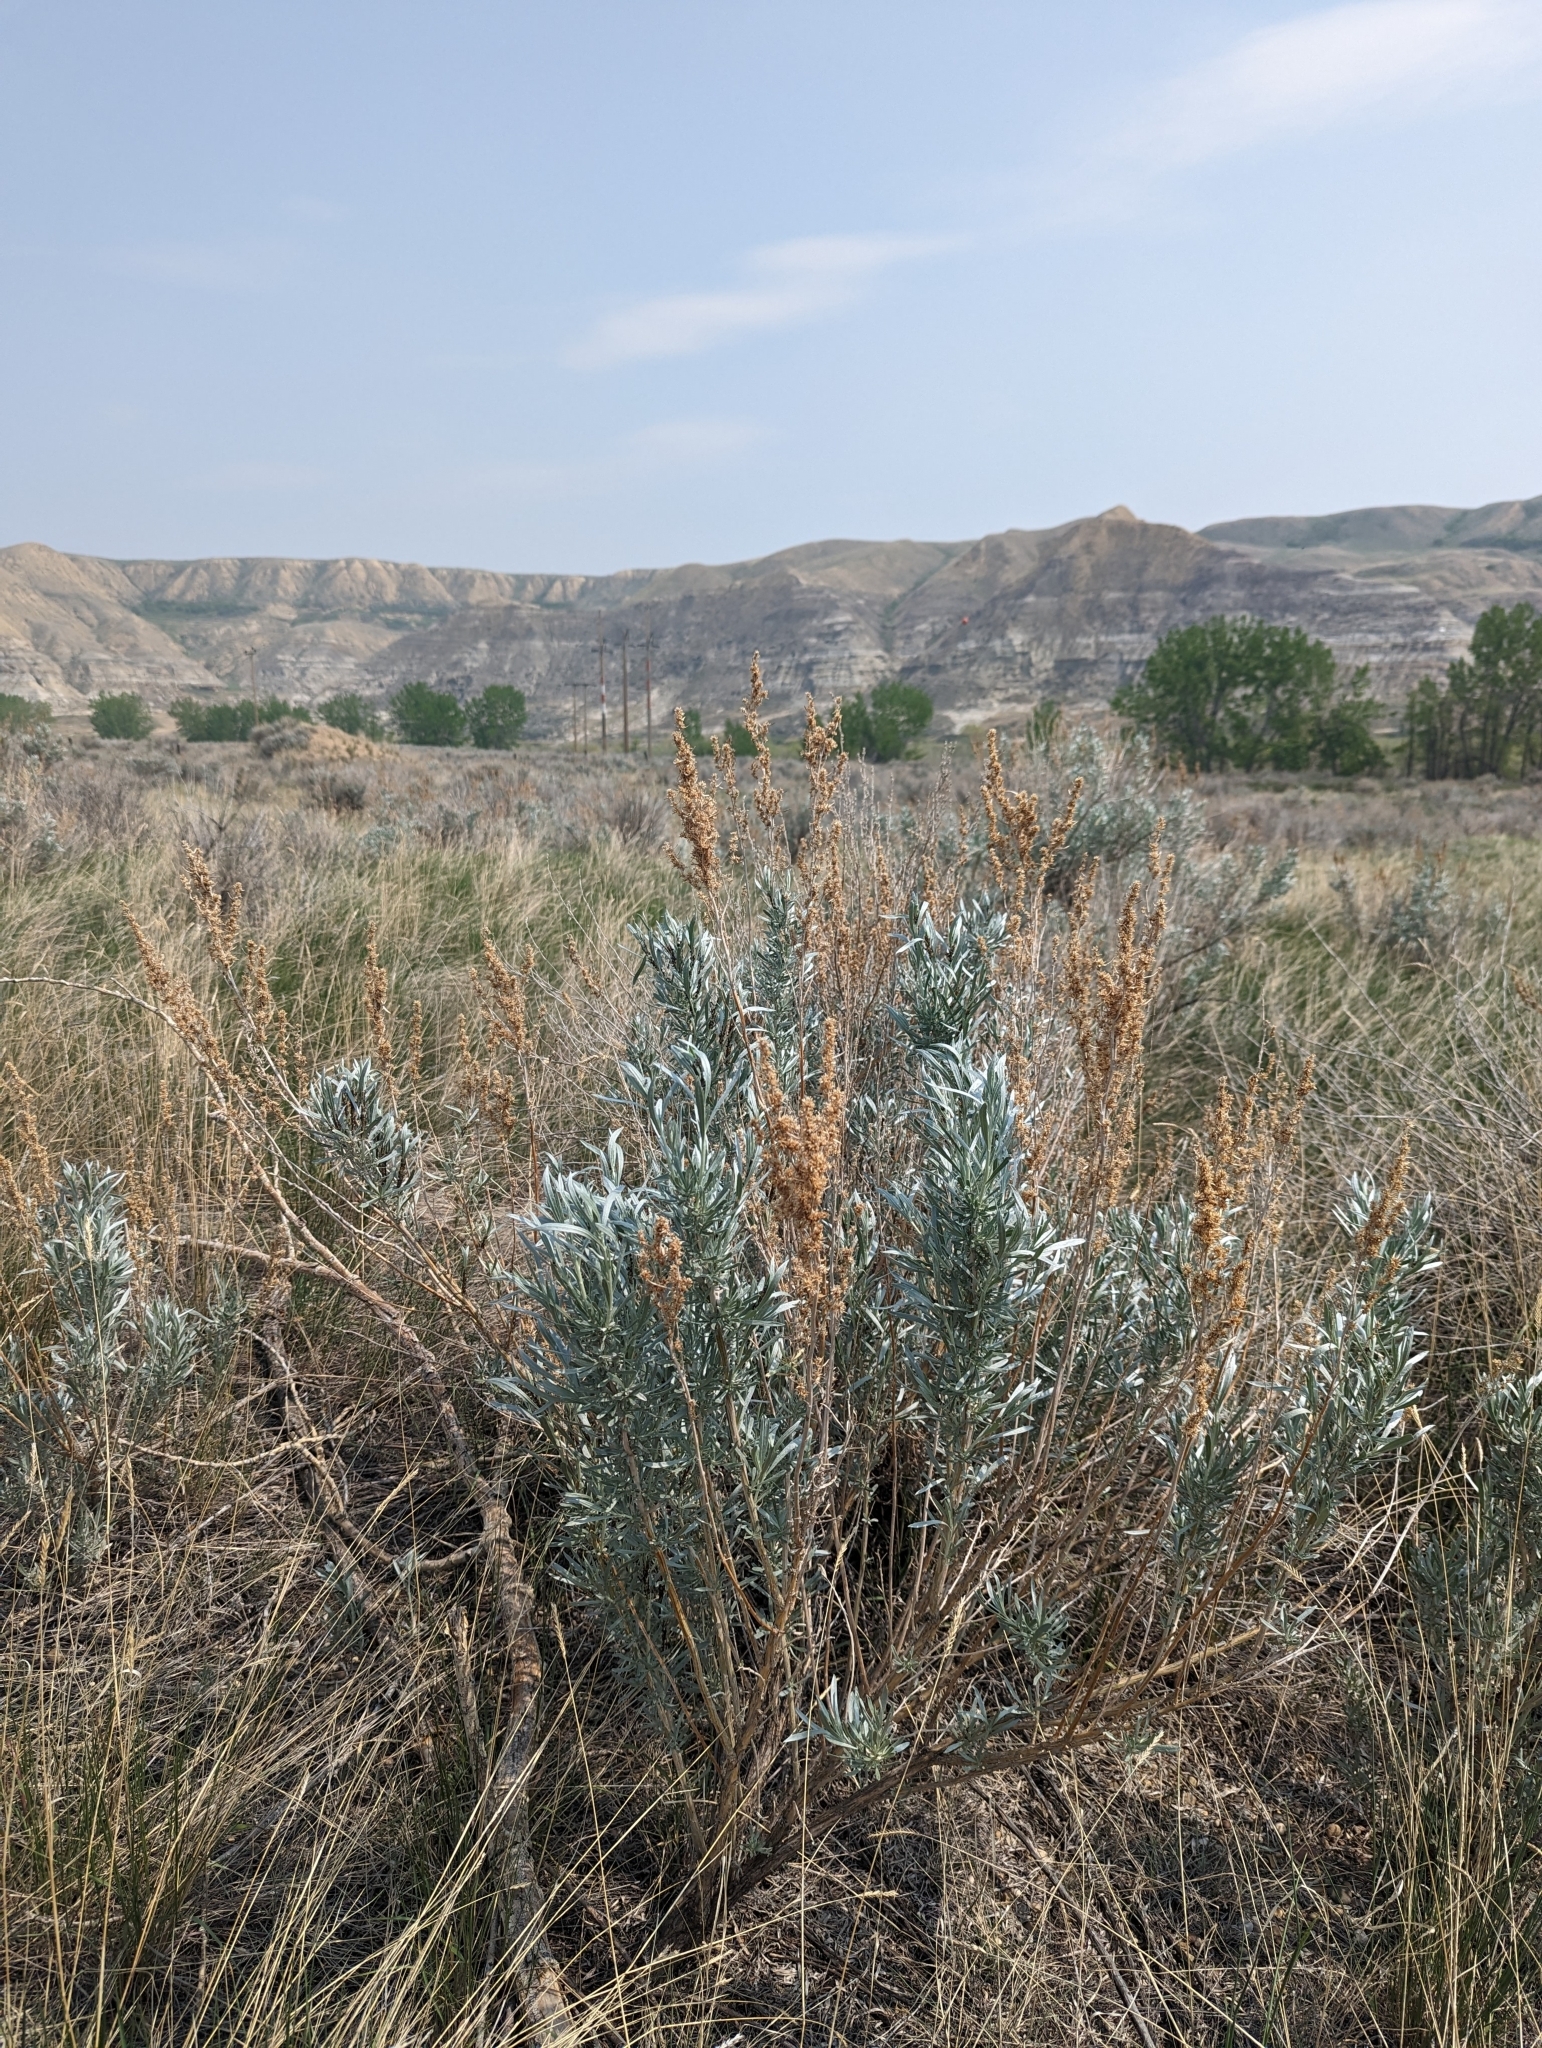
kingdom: Plantae
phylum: Tracheophyta
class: Magnoliopsida
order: Asterales
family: Asteraceae
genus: Artemisia
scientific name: Artemisia cana
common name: Silver sagebrush
